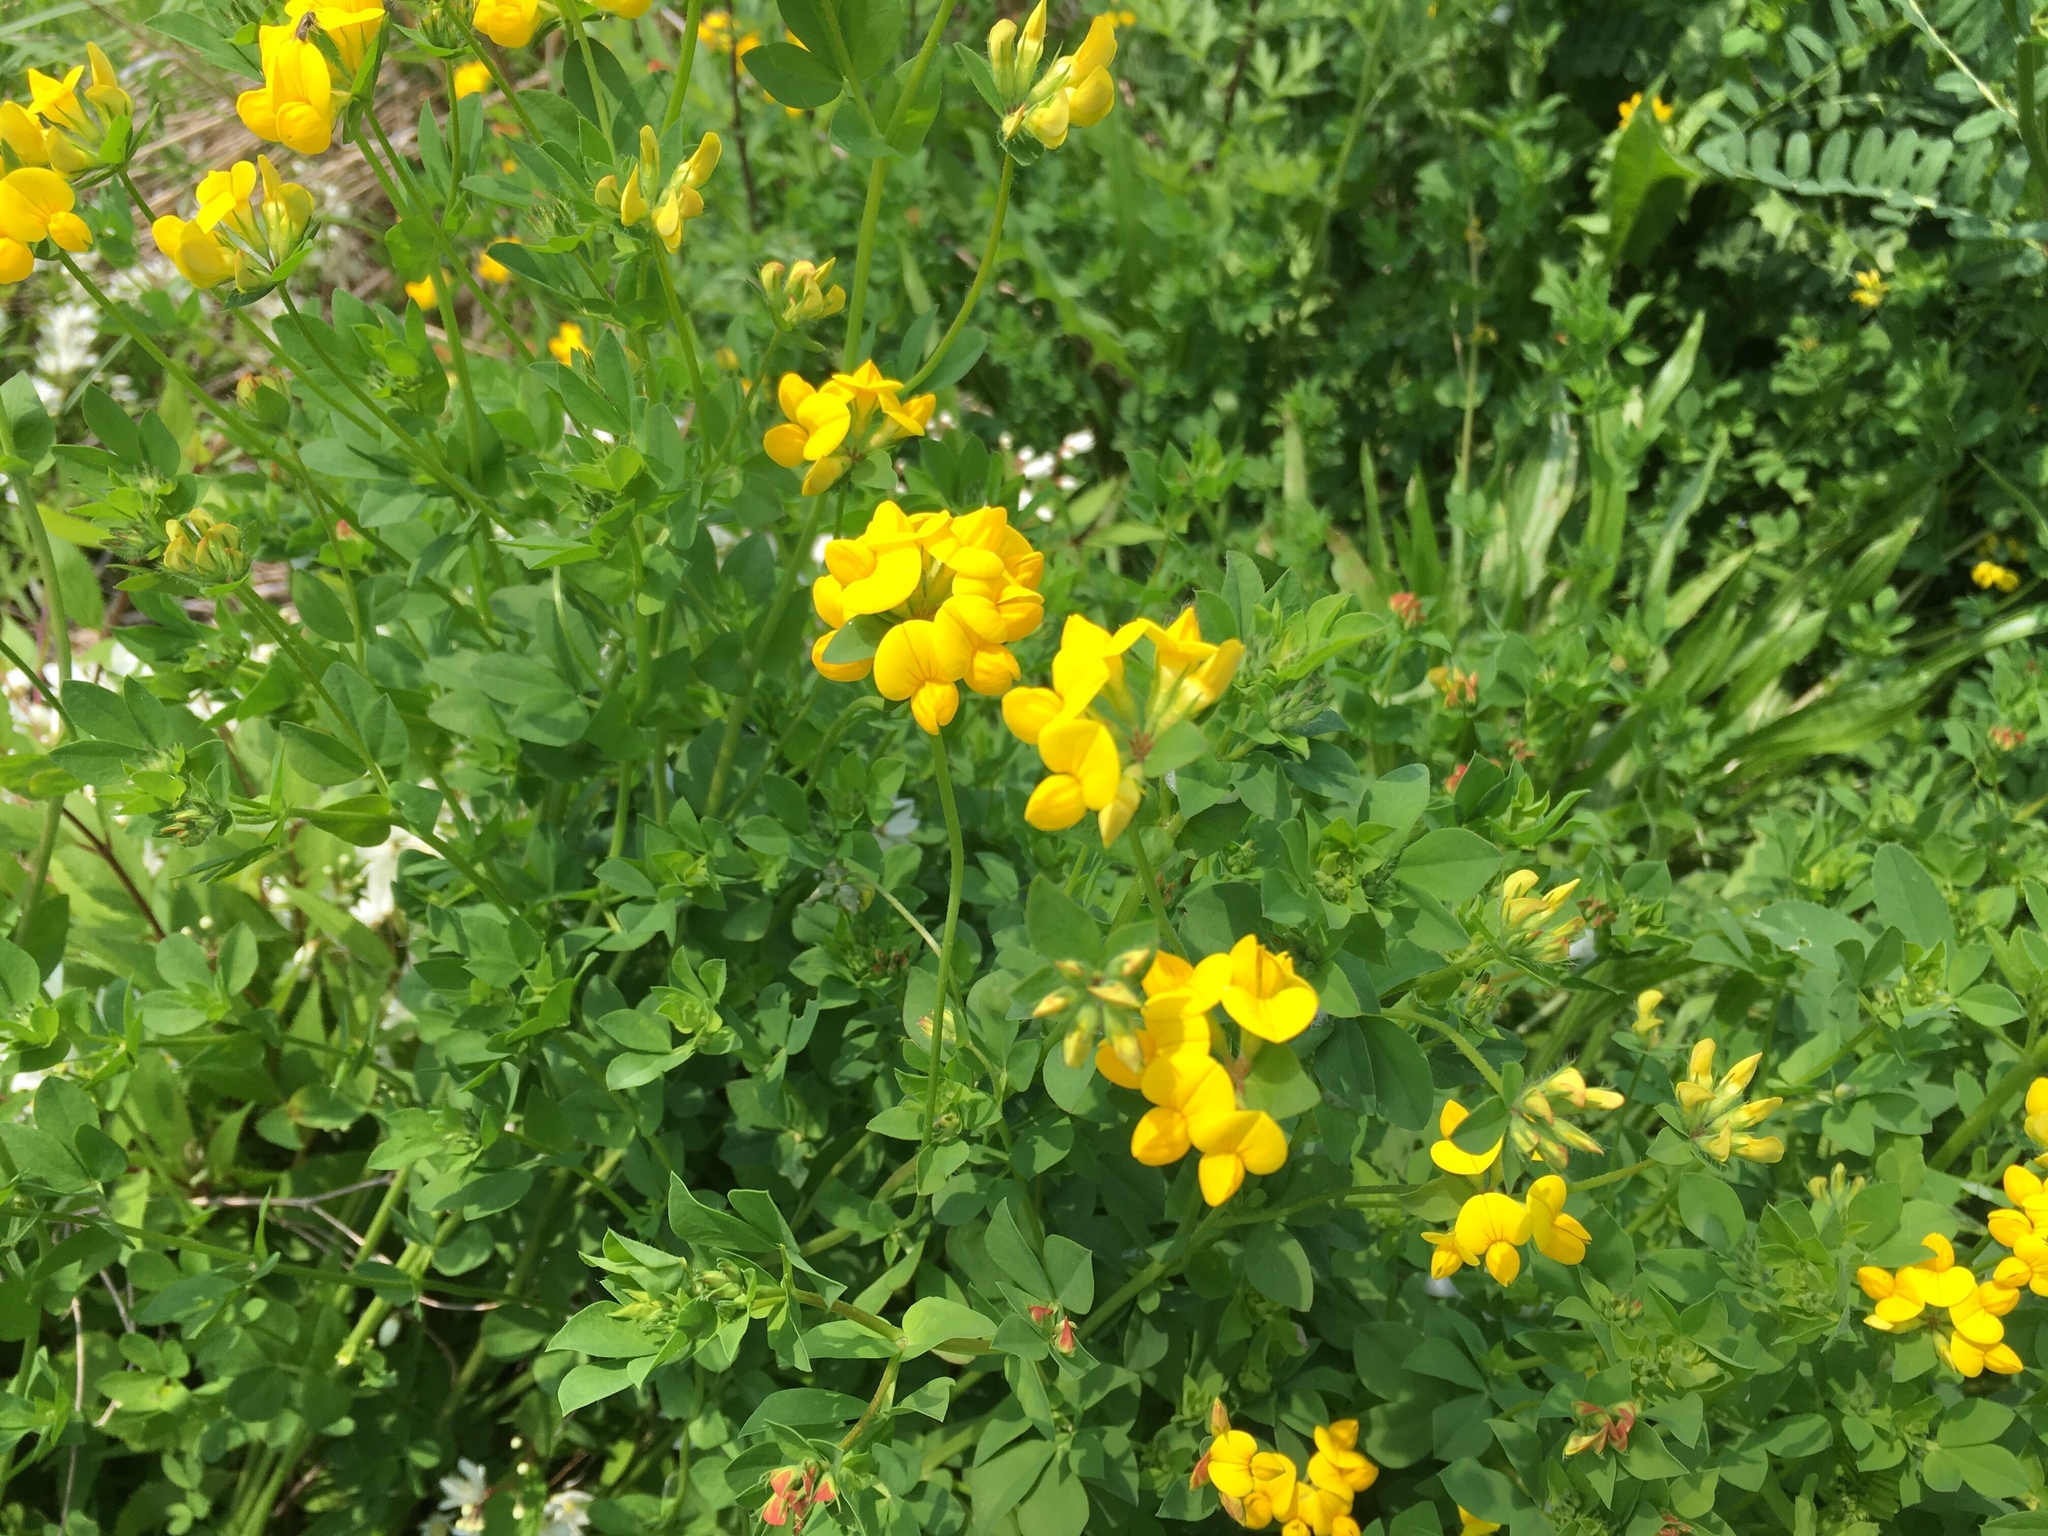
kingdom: Plantae
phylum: Tracheophyta
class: Magnoliopsida
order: Fabales
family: Fabaceae
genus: Lotus
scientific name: Lotus corniculatus
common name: Common bird's-foot-trefoil
